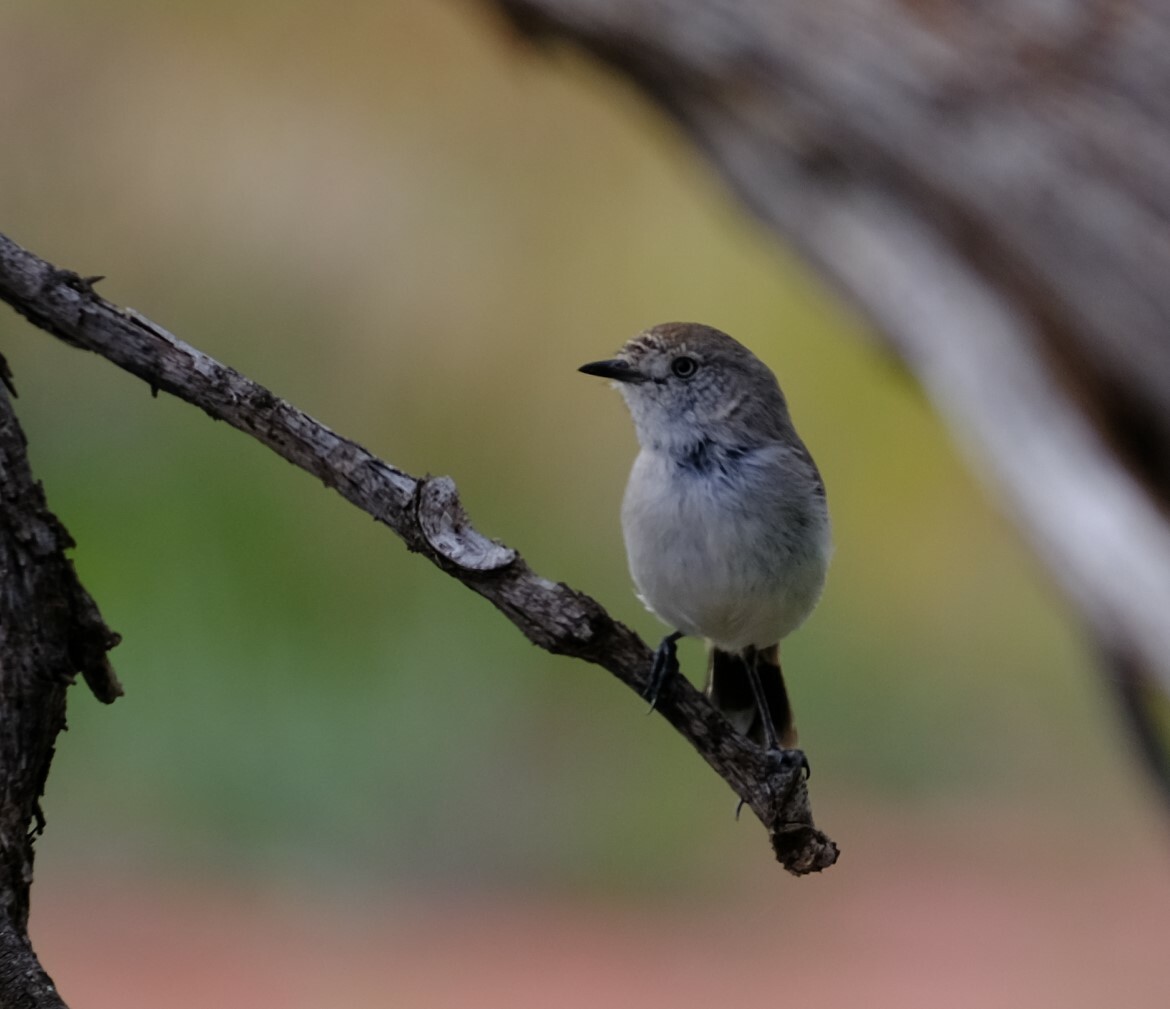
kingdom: Animalia
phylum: Chordata
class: Aves
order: Passeriformes
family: Acanthizidae
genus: Acanthiza
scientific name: Acanthiza uropygialis
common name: Chestnut-rumped thornbill
